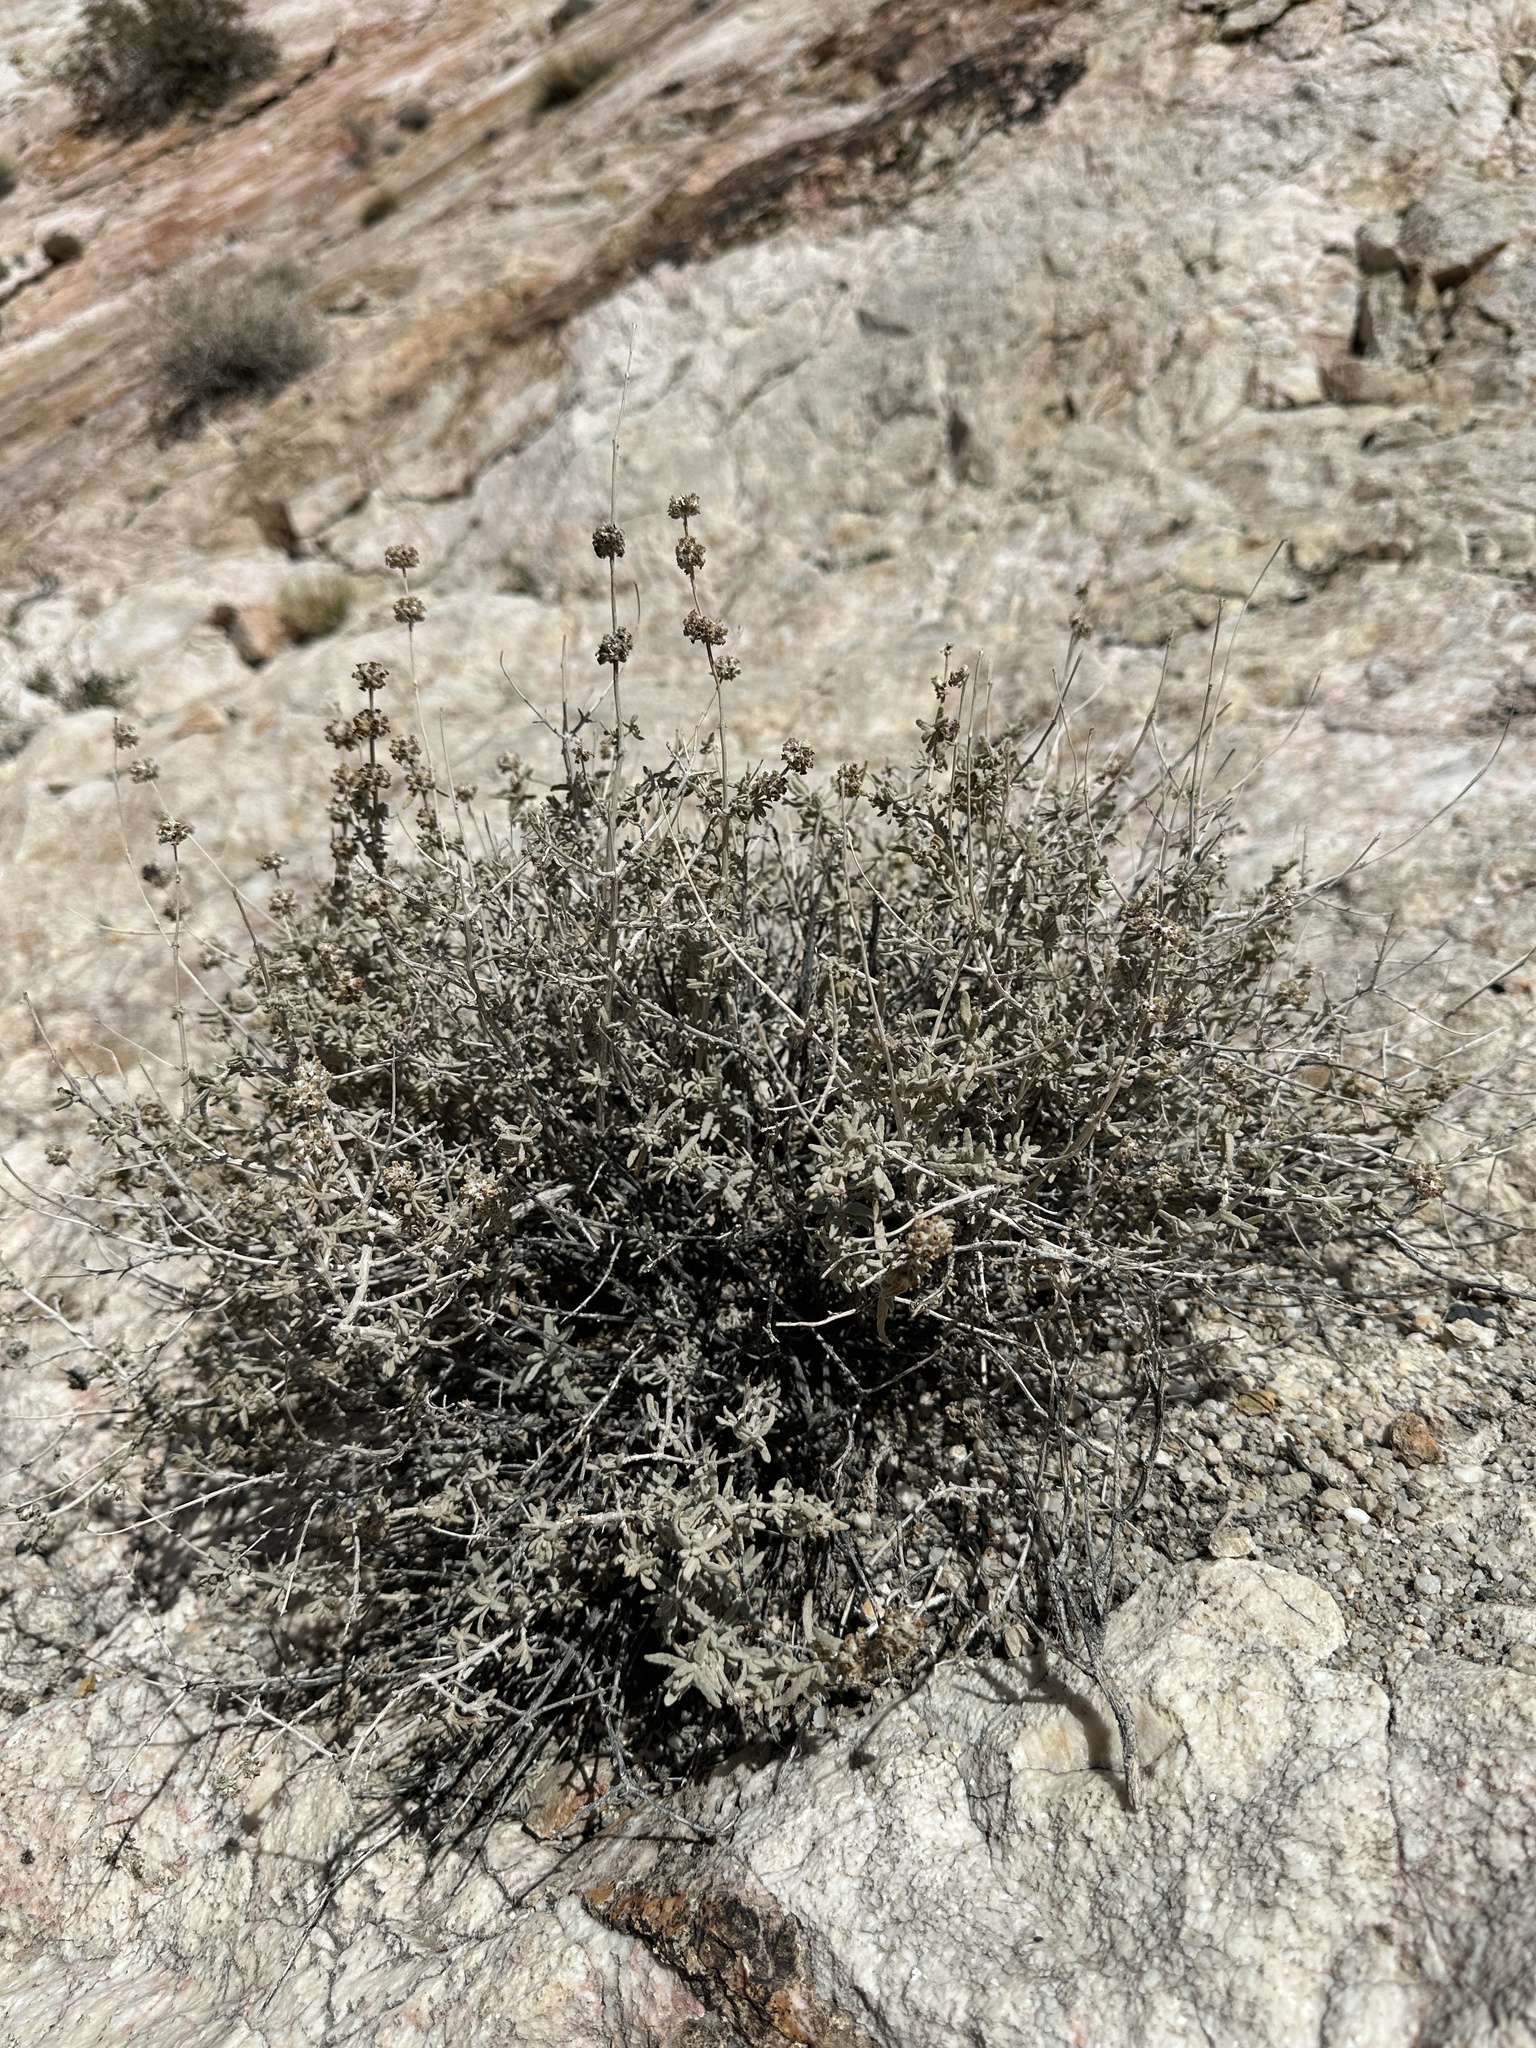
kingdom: Plantae
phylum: Tracheophyta
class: Magnoliopsida
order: Lamiales
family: Scrophulariaceae
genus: Buddleja
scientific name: Buddleja utahensis
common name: Utah butterfly-bush
